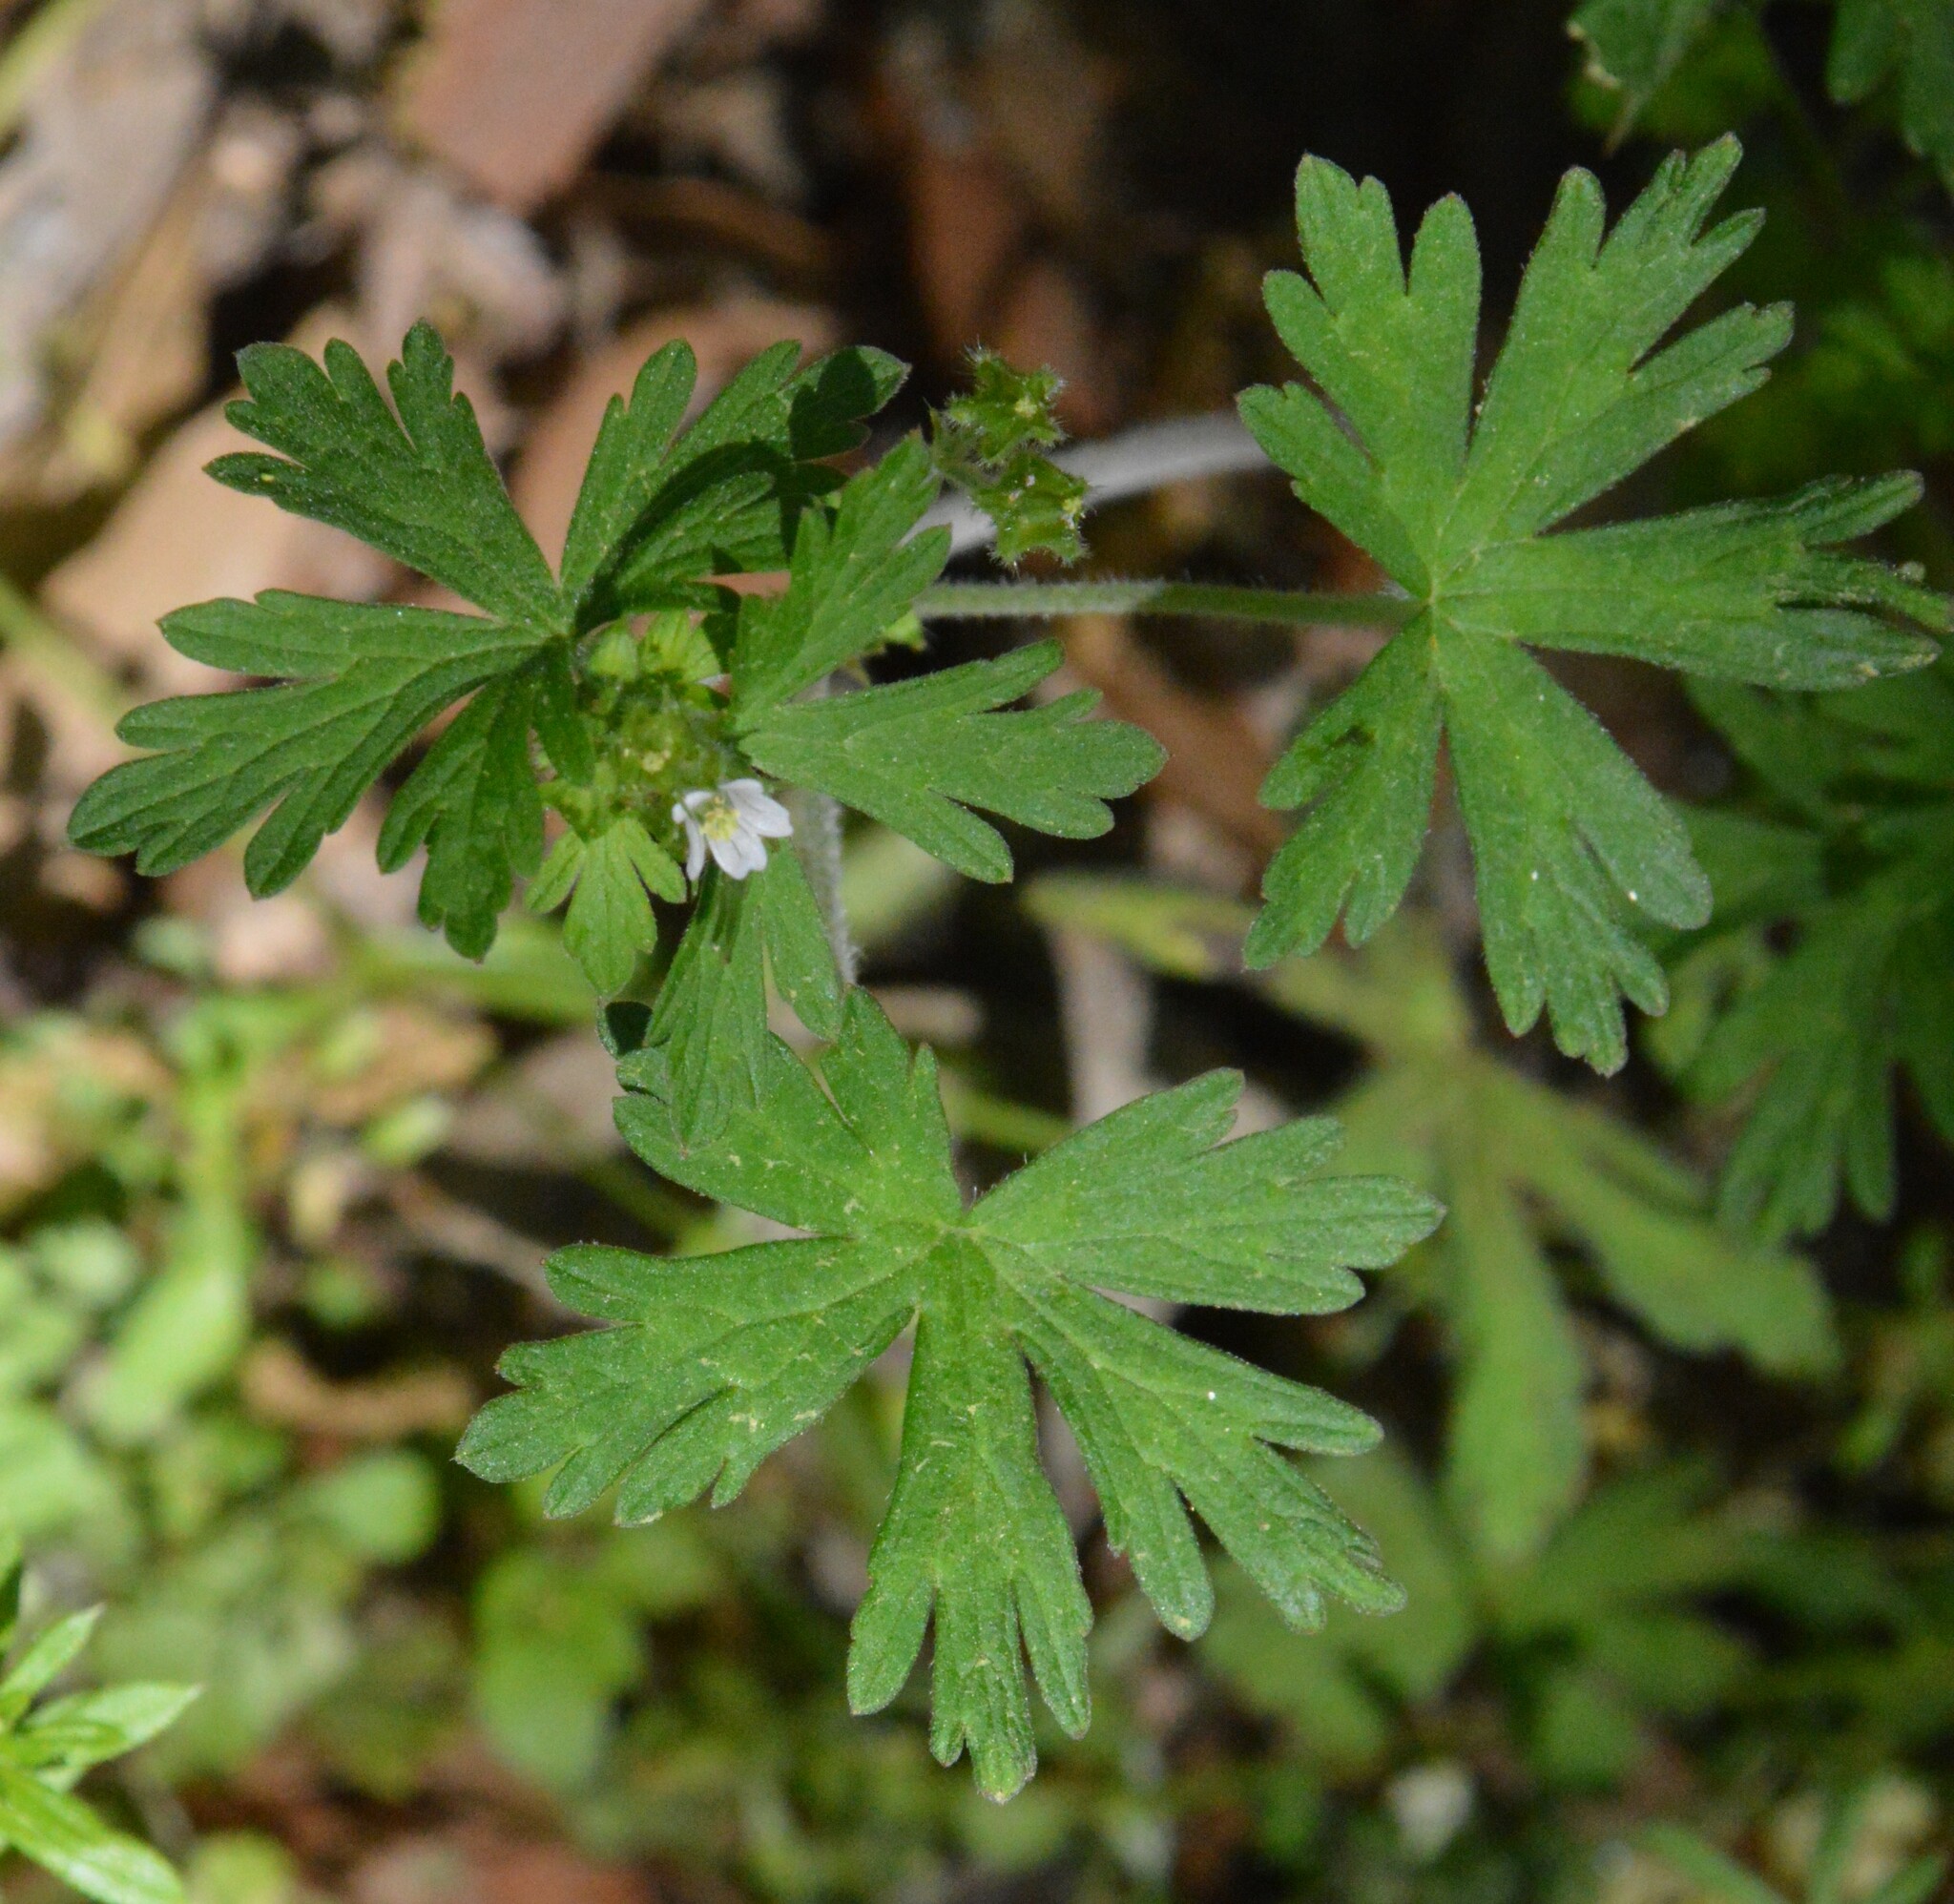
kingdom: Plantae
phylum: Tracheophyta
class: Magnoliopsida
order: Geraniales
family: Geraniaceae
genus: Geranium
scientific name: Geranium carolinianum
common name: Carolina crane's-bill
